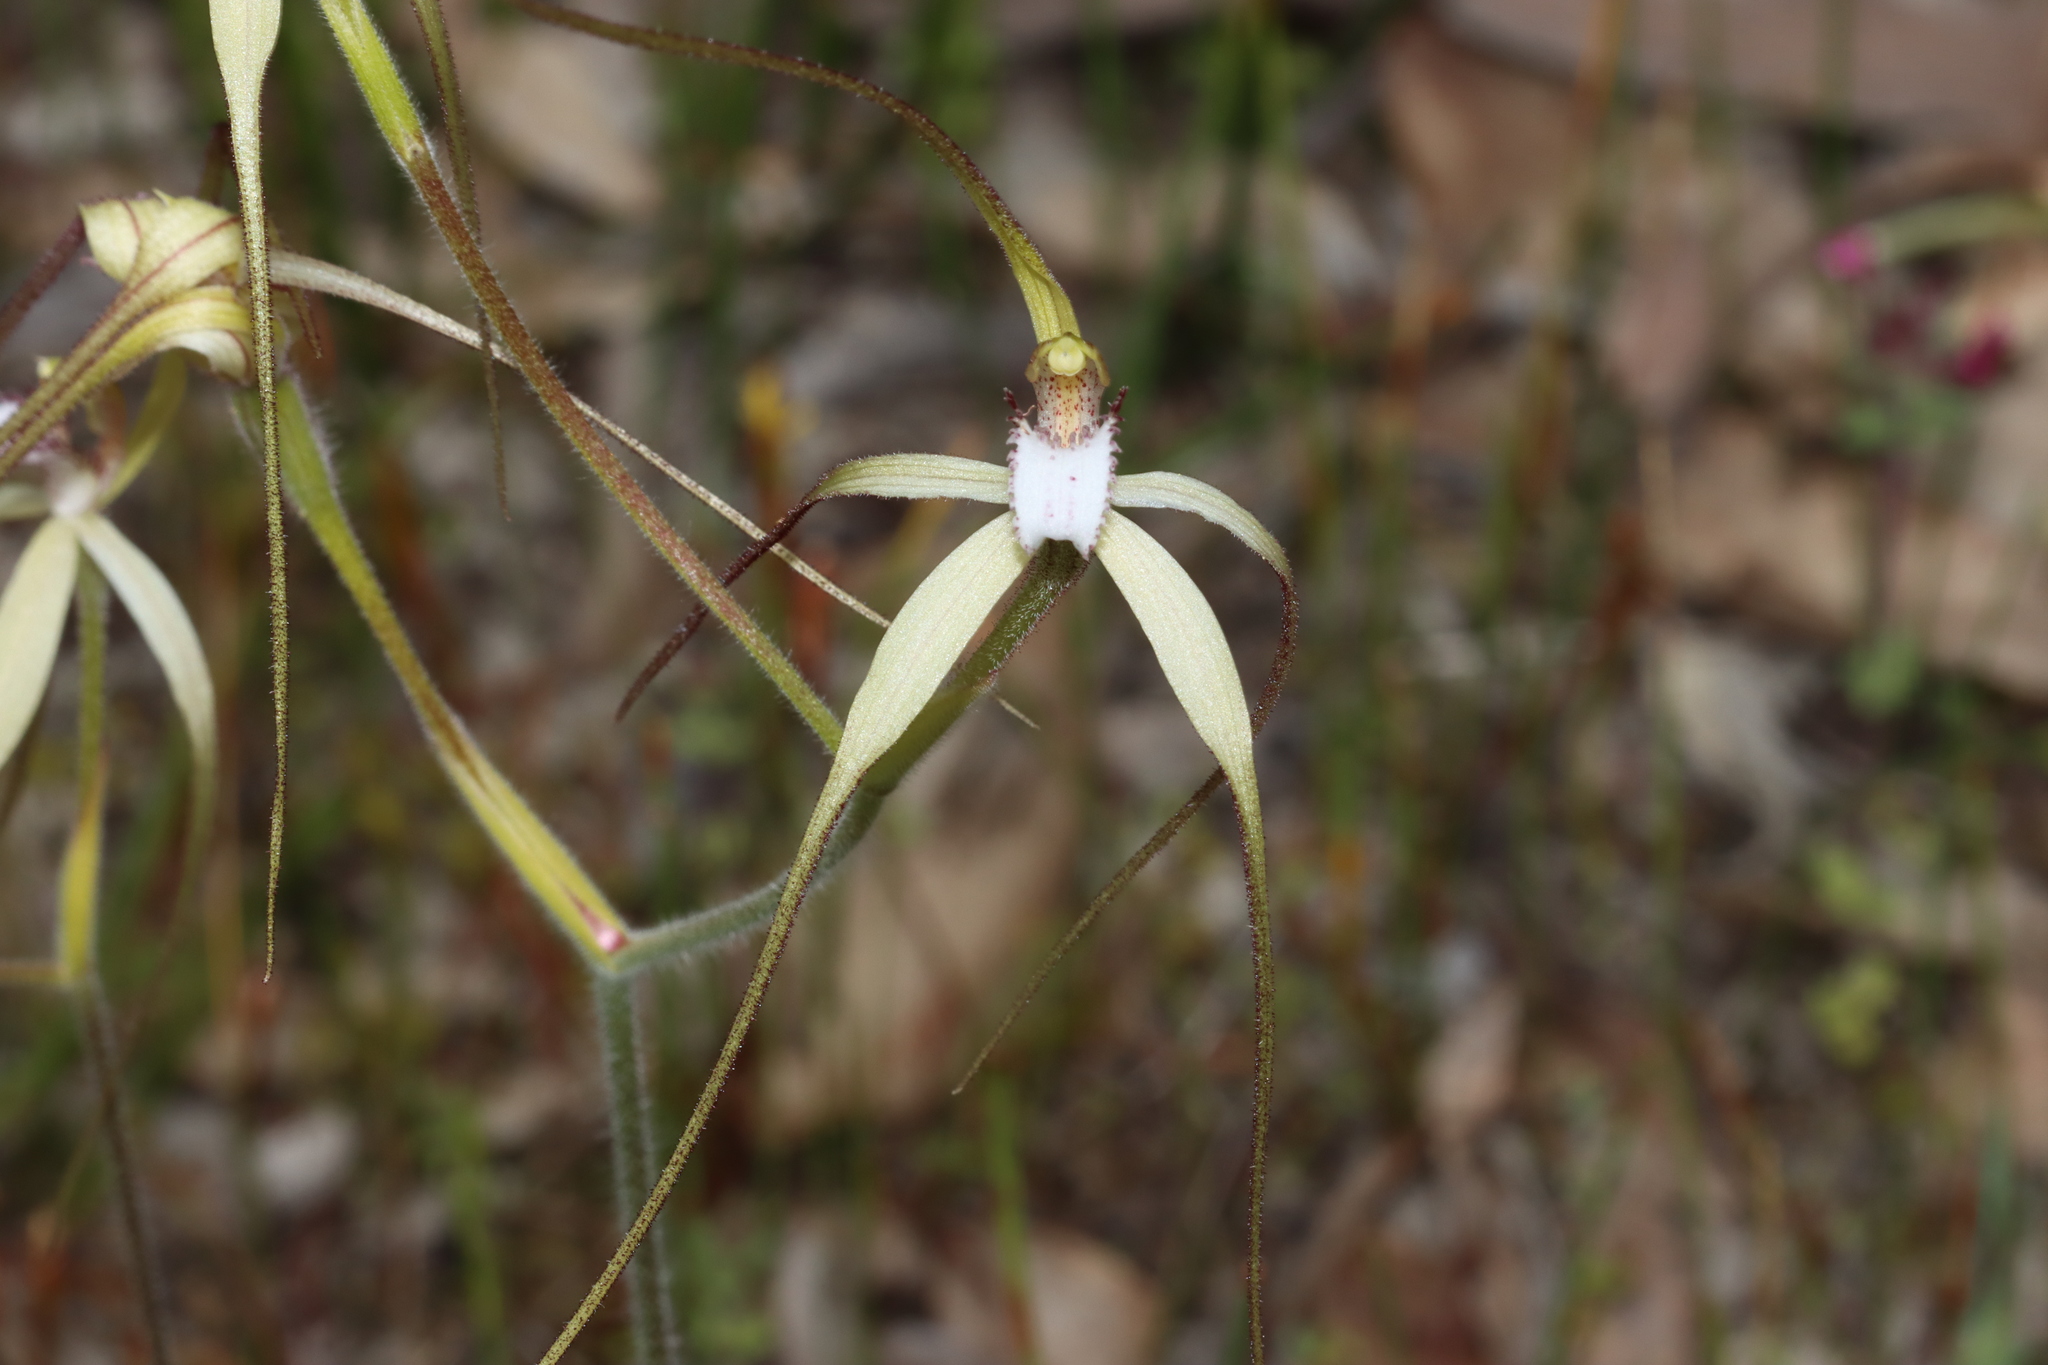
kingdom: Plantae
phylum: Tracheophyta
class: Liliopsida
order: Asparagales
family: Orchidaceae
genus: Caladenia
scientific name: Caladenia uliginosa
